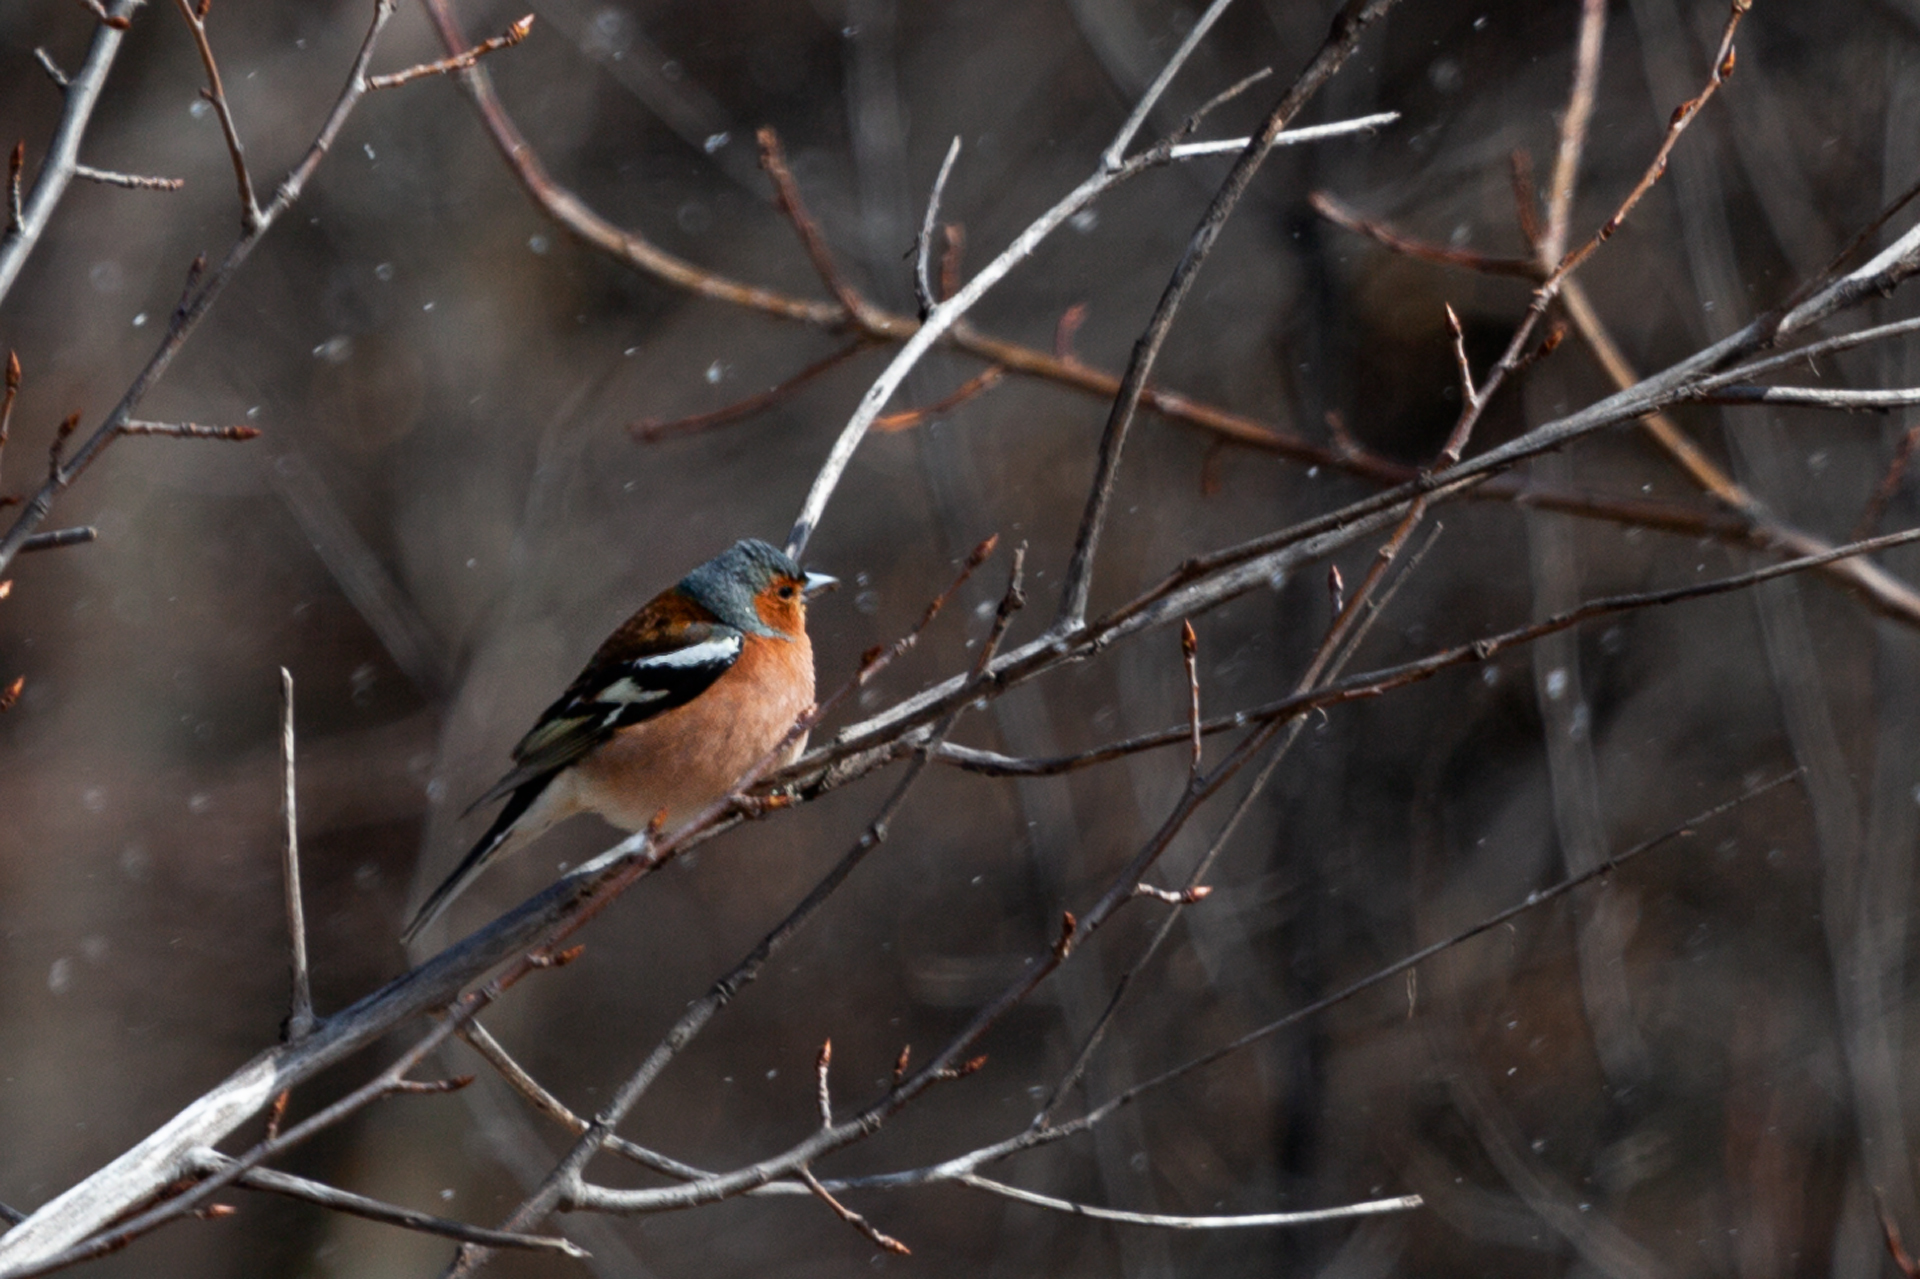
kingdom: Animalia
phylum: Chordata
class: Aves
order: Passeriformes
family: Fringillidae
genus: Fringilla
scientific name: Fringilla coelebs
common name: Common chaffinch
